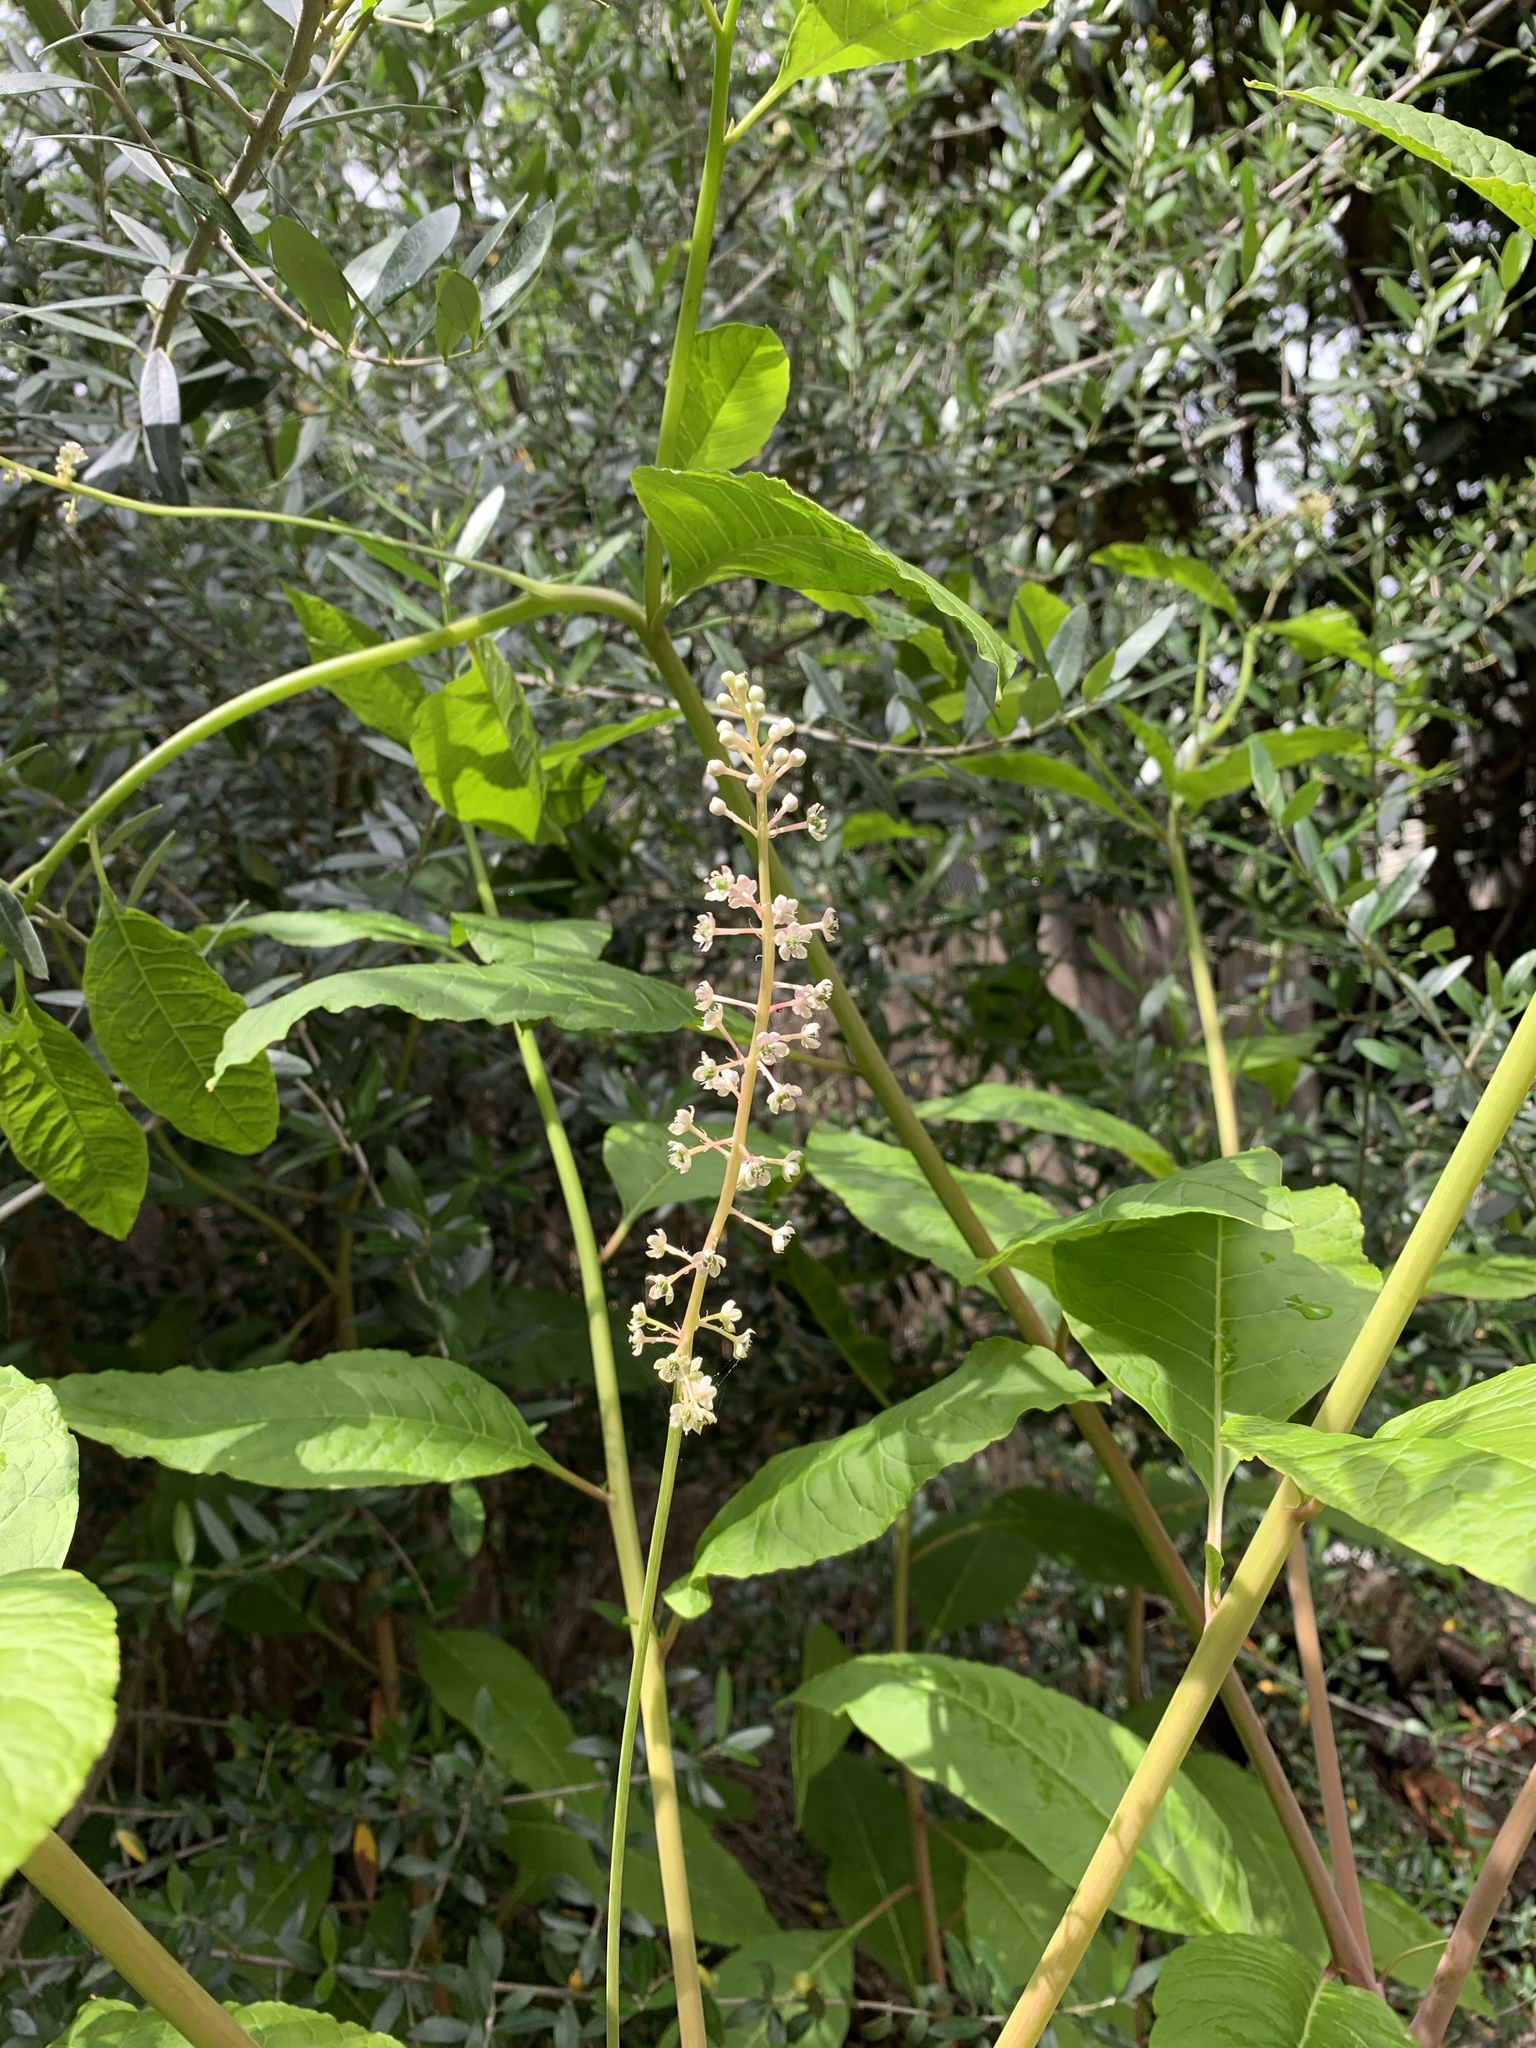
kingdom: Plantae
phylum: Tracheophyta
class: Magnoliopsida
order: Caryophyllales
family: Phytolaccaceae
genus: Phytolacca
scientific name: Phytolacca americana
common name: American pokeweed
